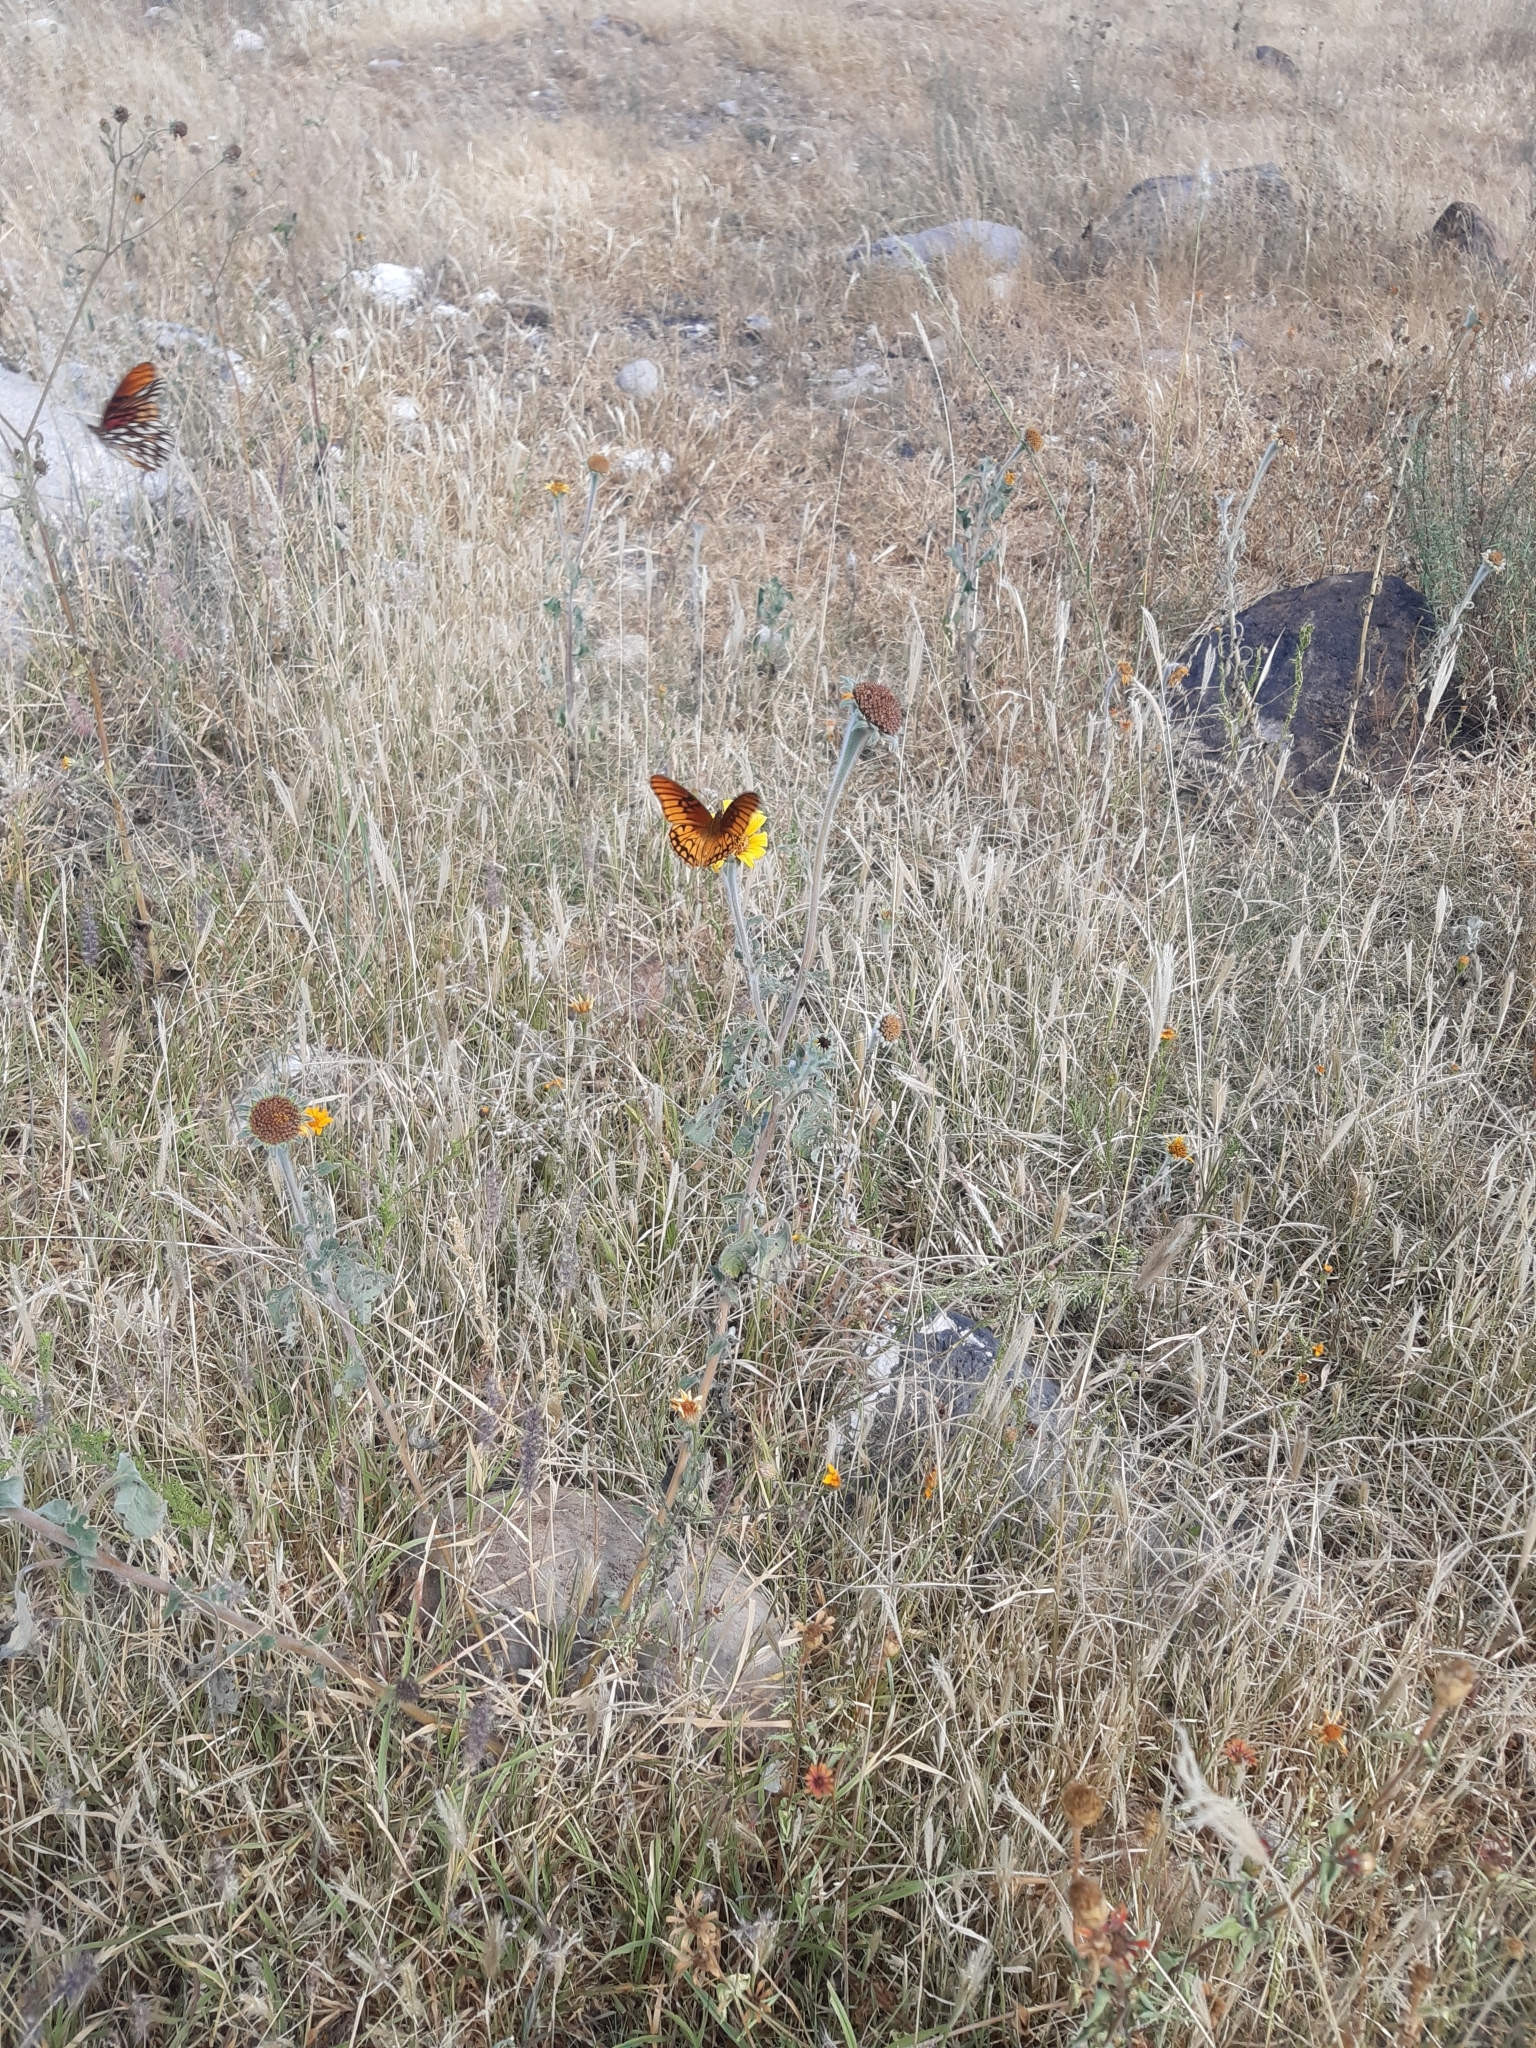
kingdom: Animalia
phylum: Arthropoda
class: Insecta
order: Lepidoptera
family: Nymphalidae
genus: Dione
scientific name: Dione moneta
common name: Mexican silverspot
